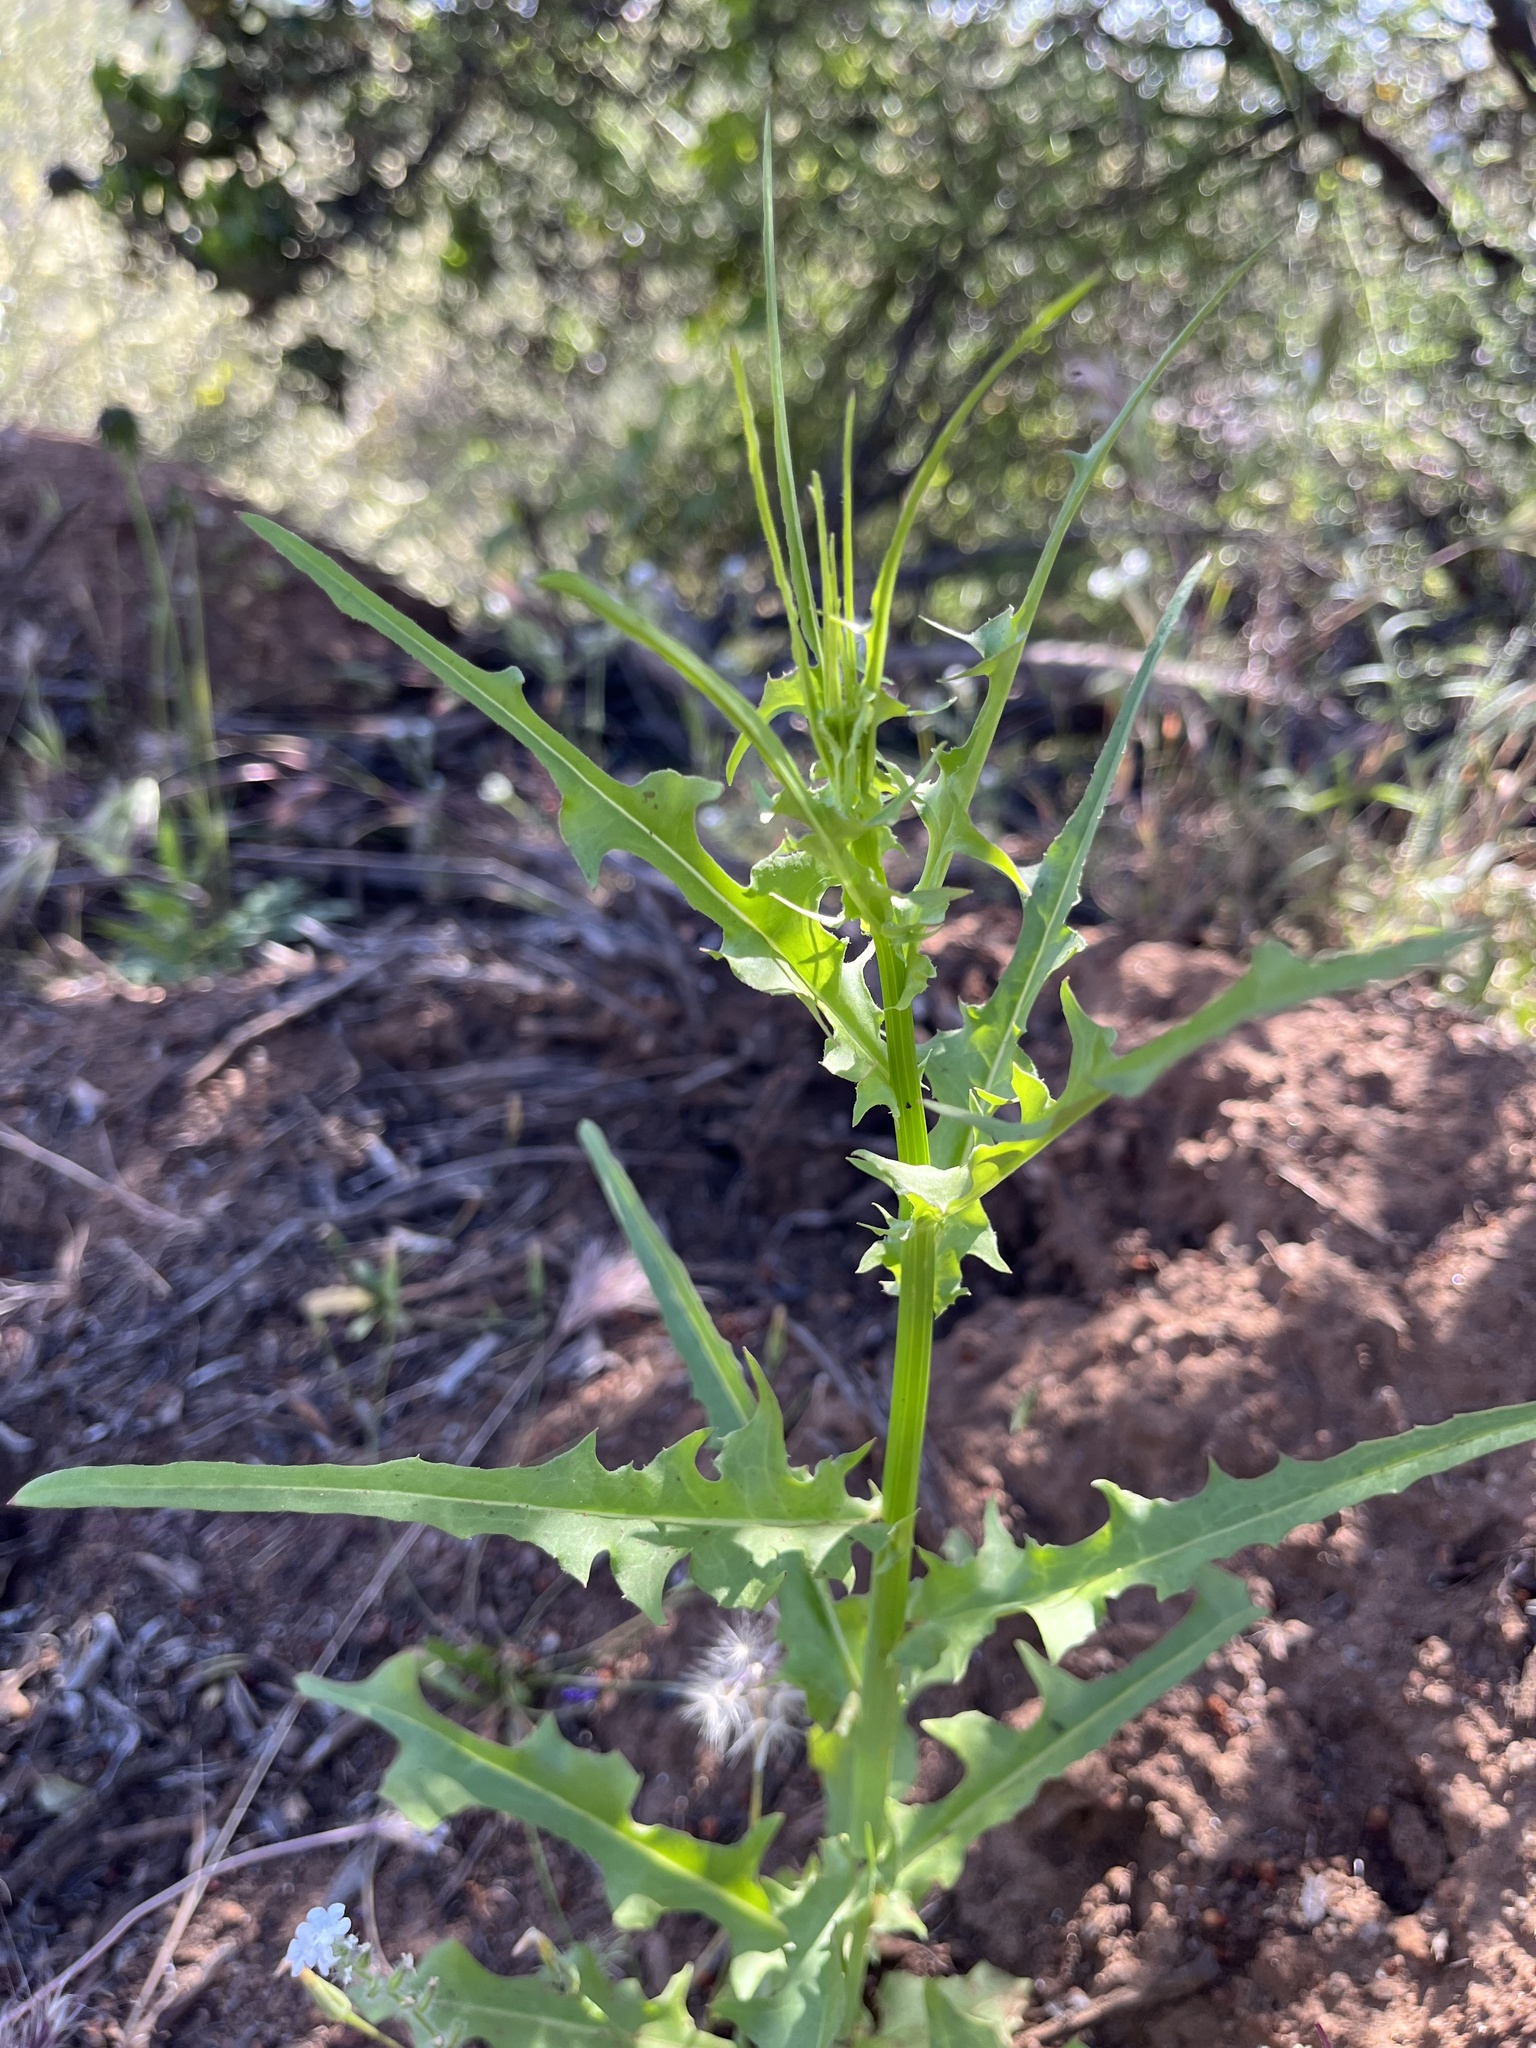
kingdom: Plantae
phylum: Tracheophyta
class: Magnoliopsida
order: Brassicales
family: Brassicaceae
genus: Streptanthus
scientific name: Streptanthus lasiophyllus
